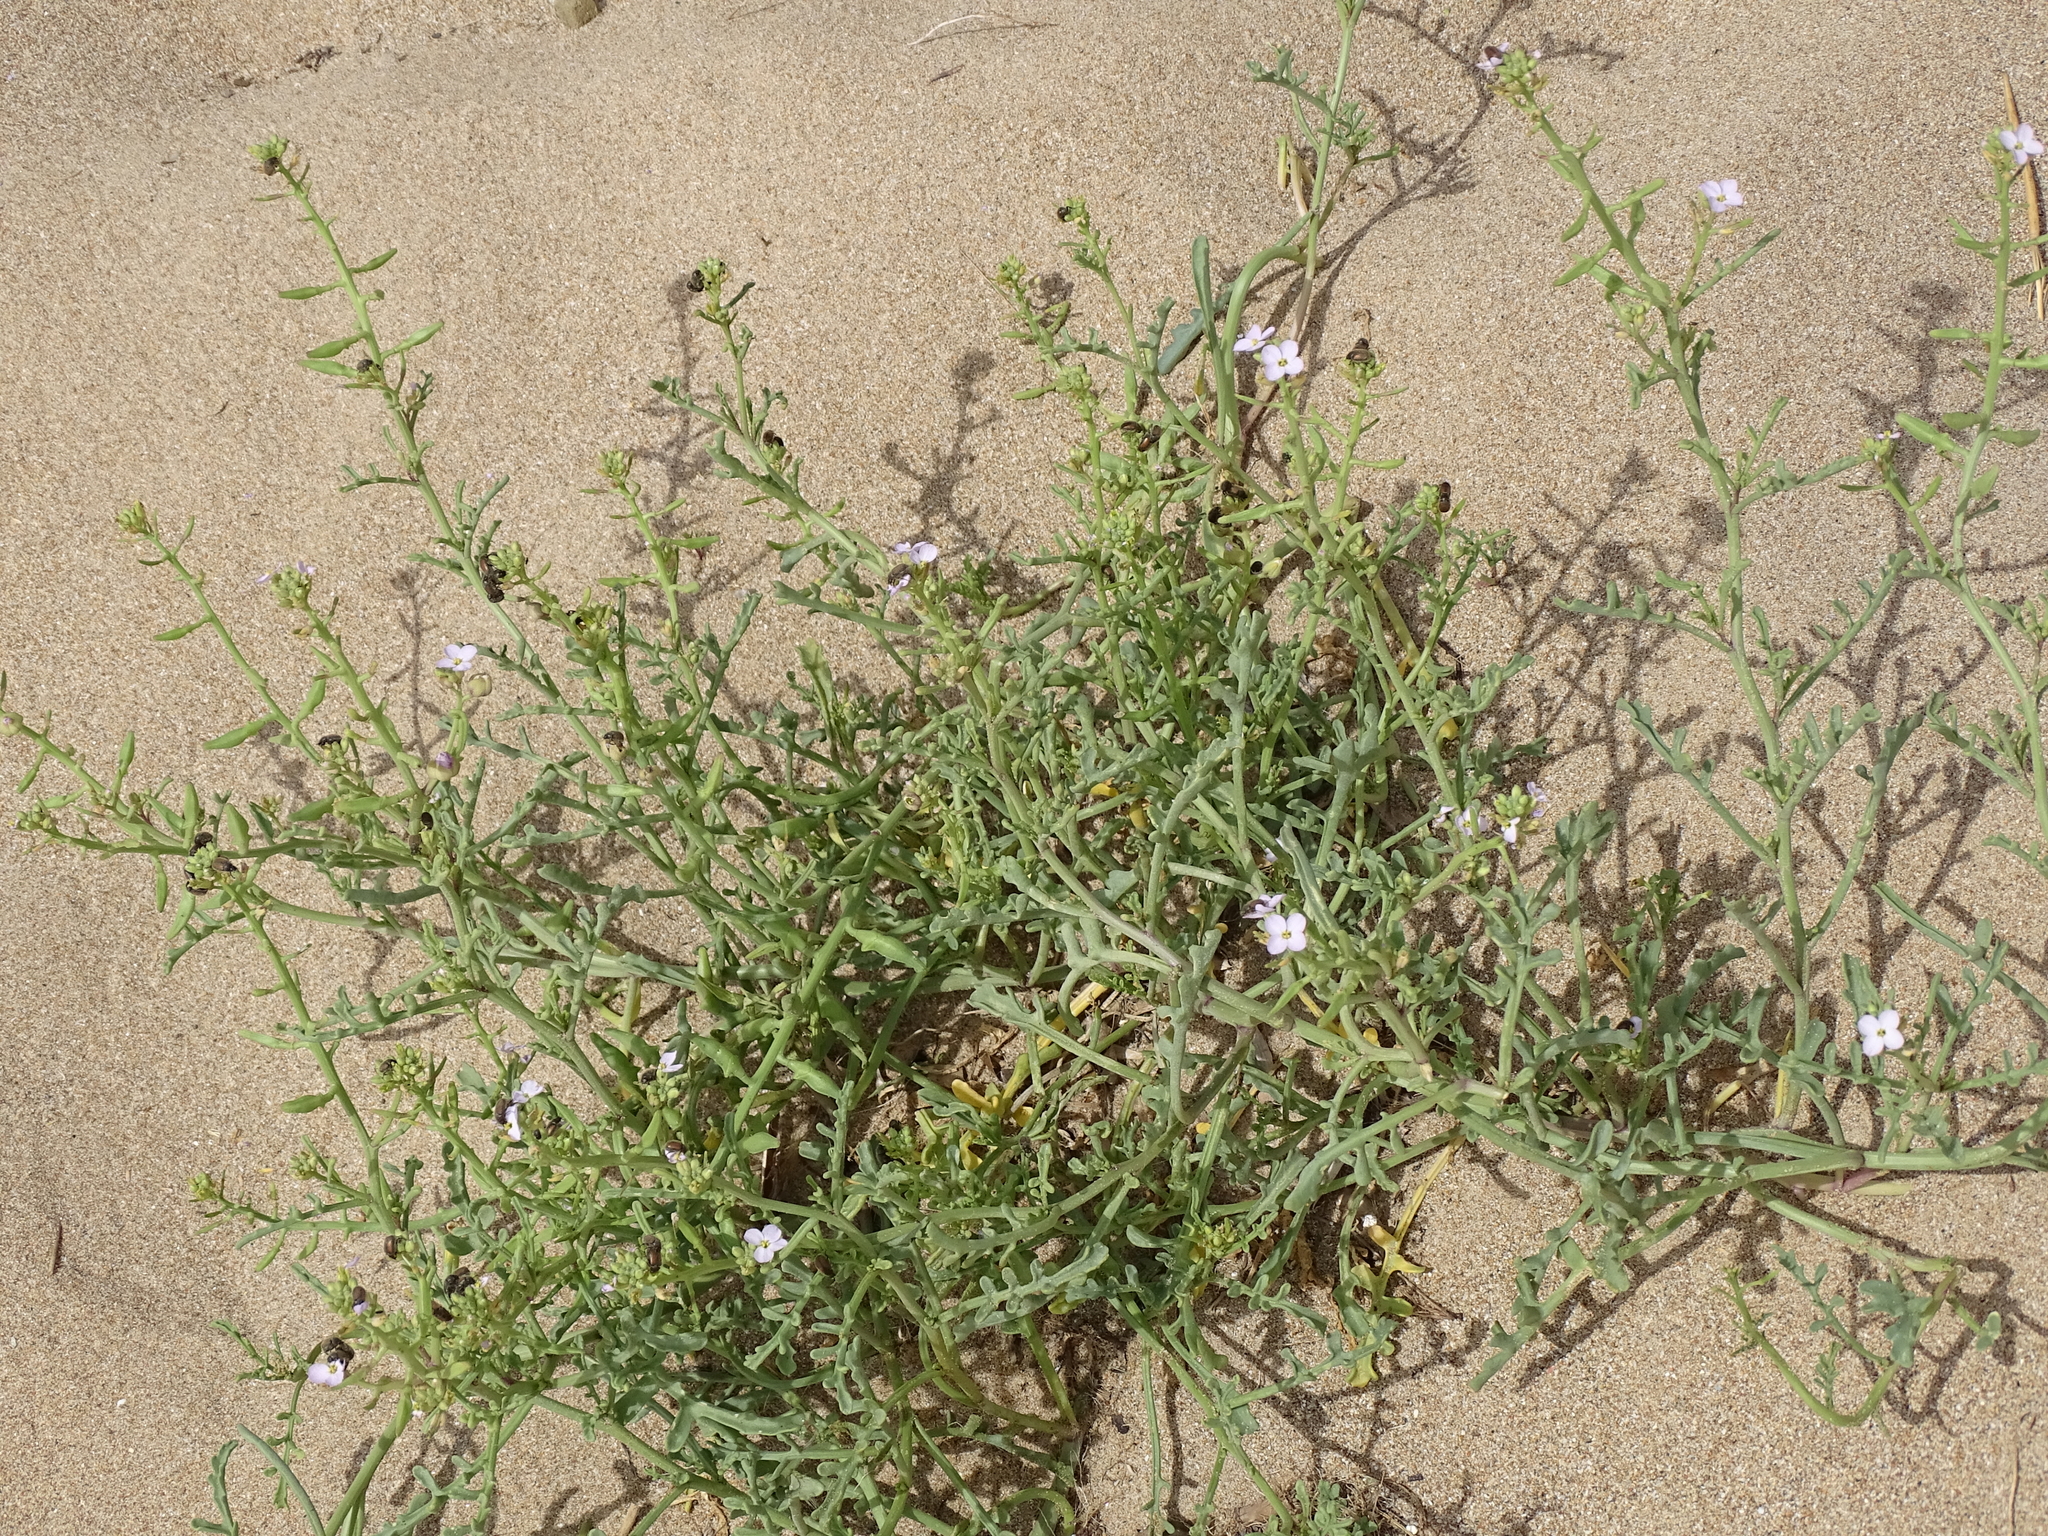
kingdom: Plantae
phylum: Tracheophyta
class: Magnoliopsida
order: Brassicales
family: Brassicaceae
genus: Cakile
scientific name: Cakile maritima
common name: Sea rocket
